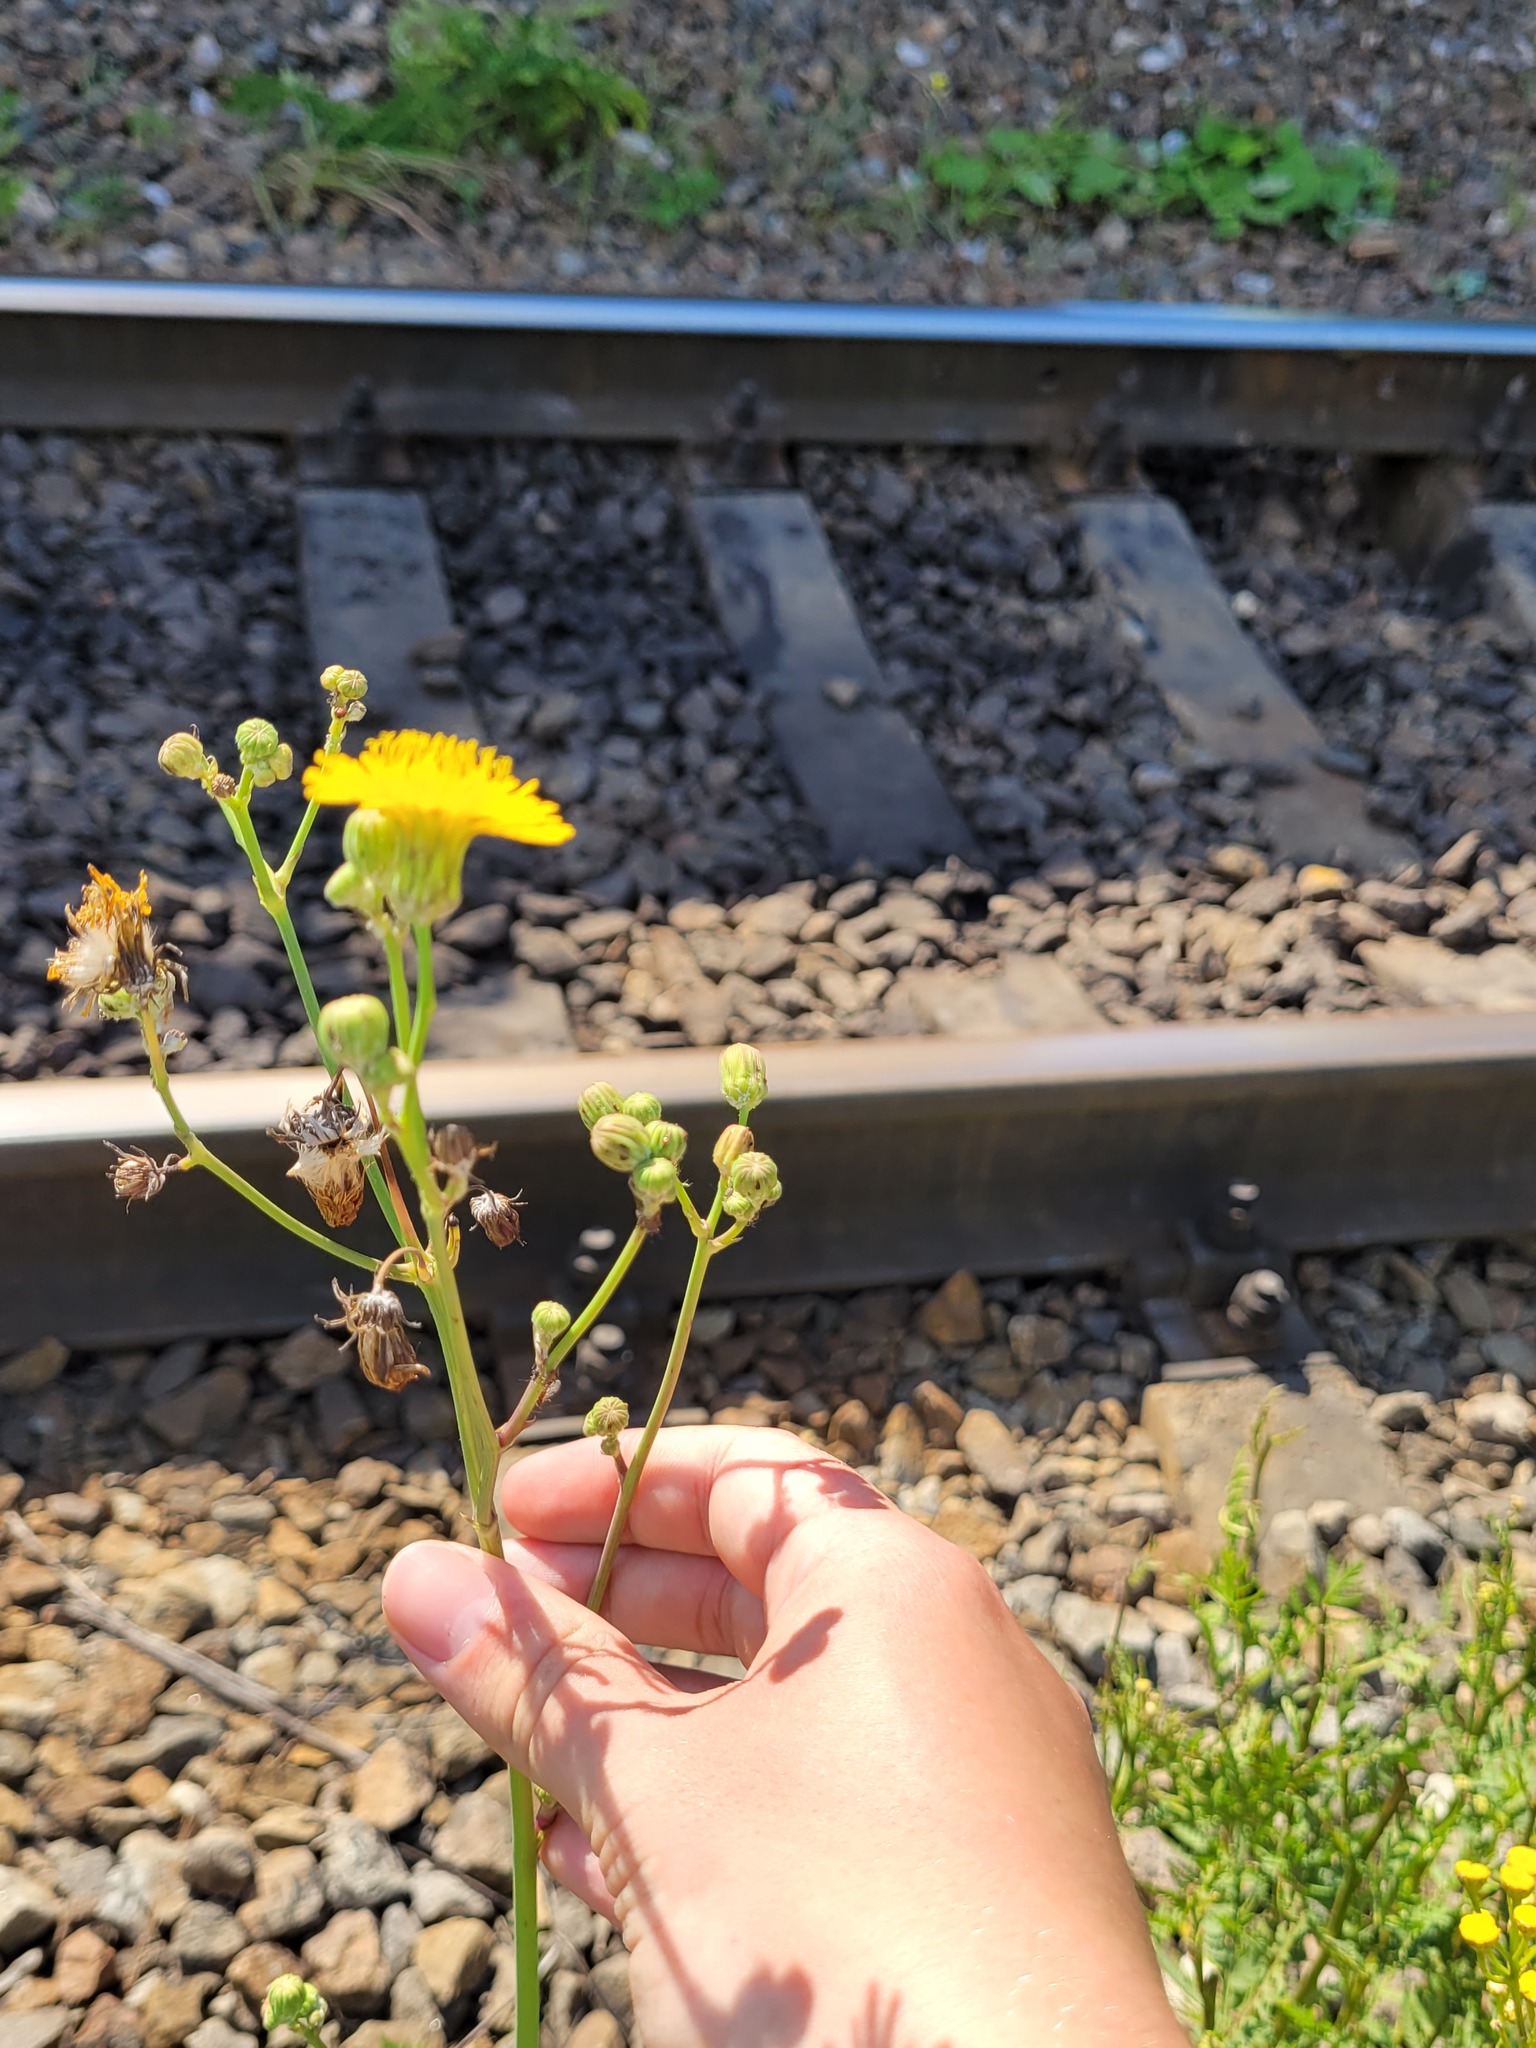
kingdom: Plantae
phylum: Tracheophyta
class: Magnoliopsida
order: Asterales
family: Asteraceae
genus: Sonchus
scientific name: Sonchus arvensis
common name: Perennial sow-thistle
